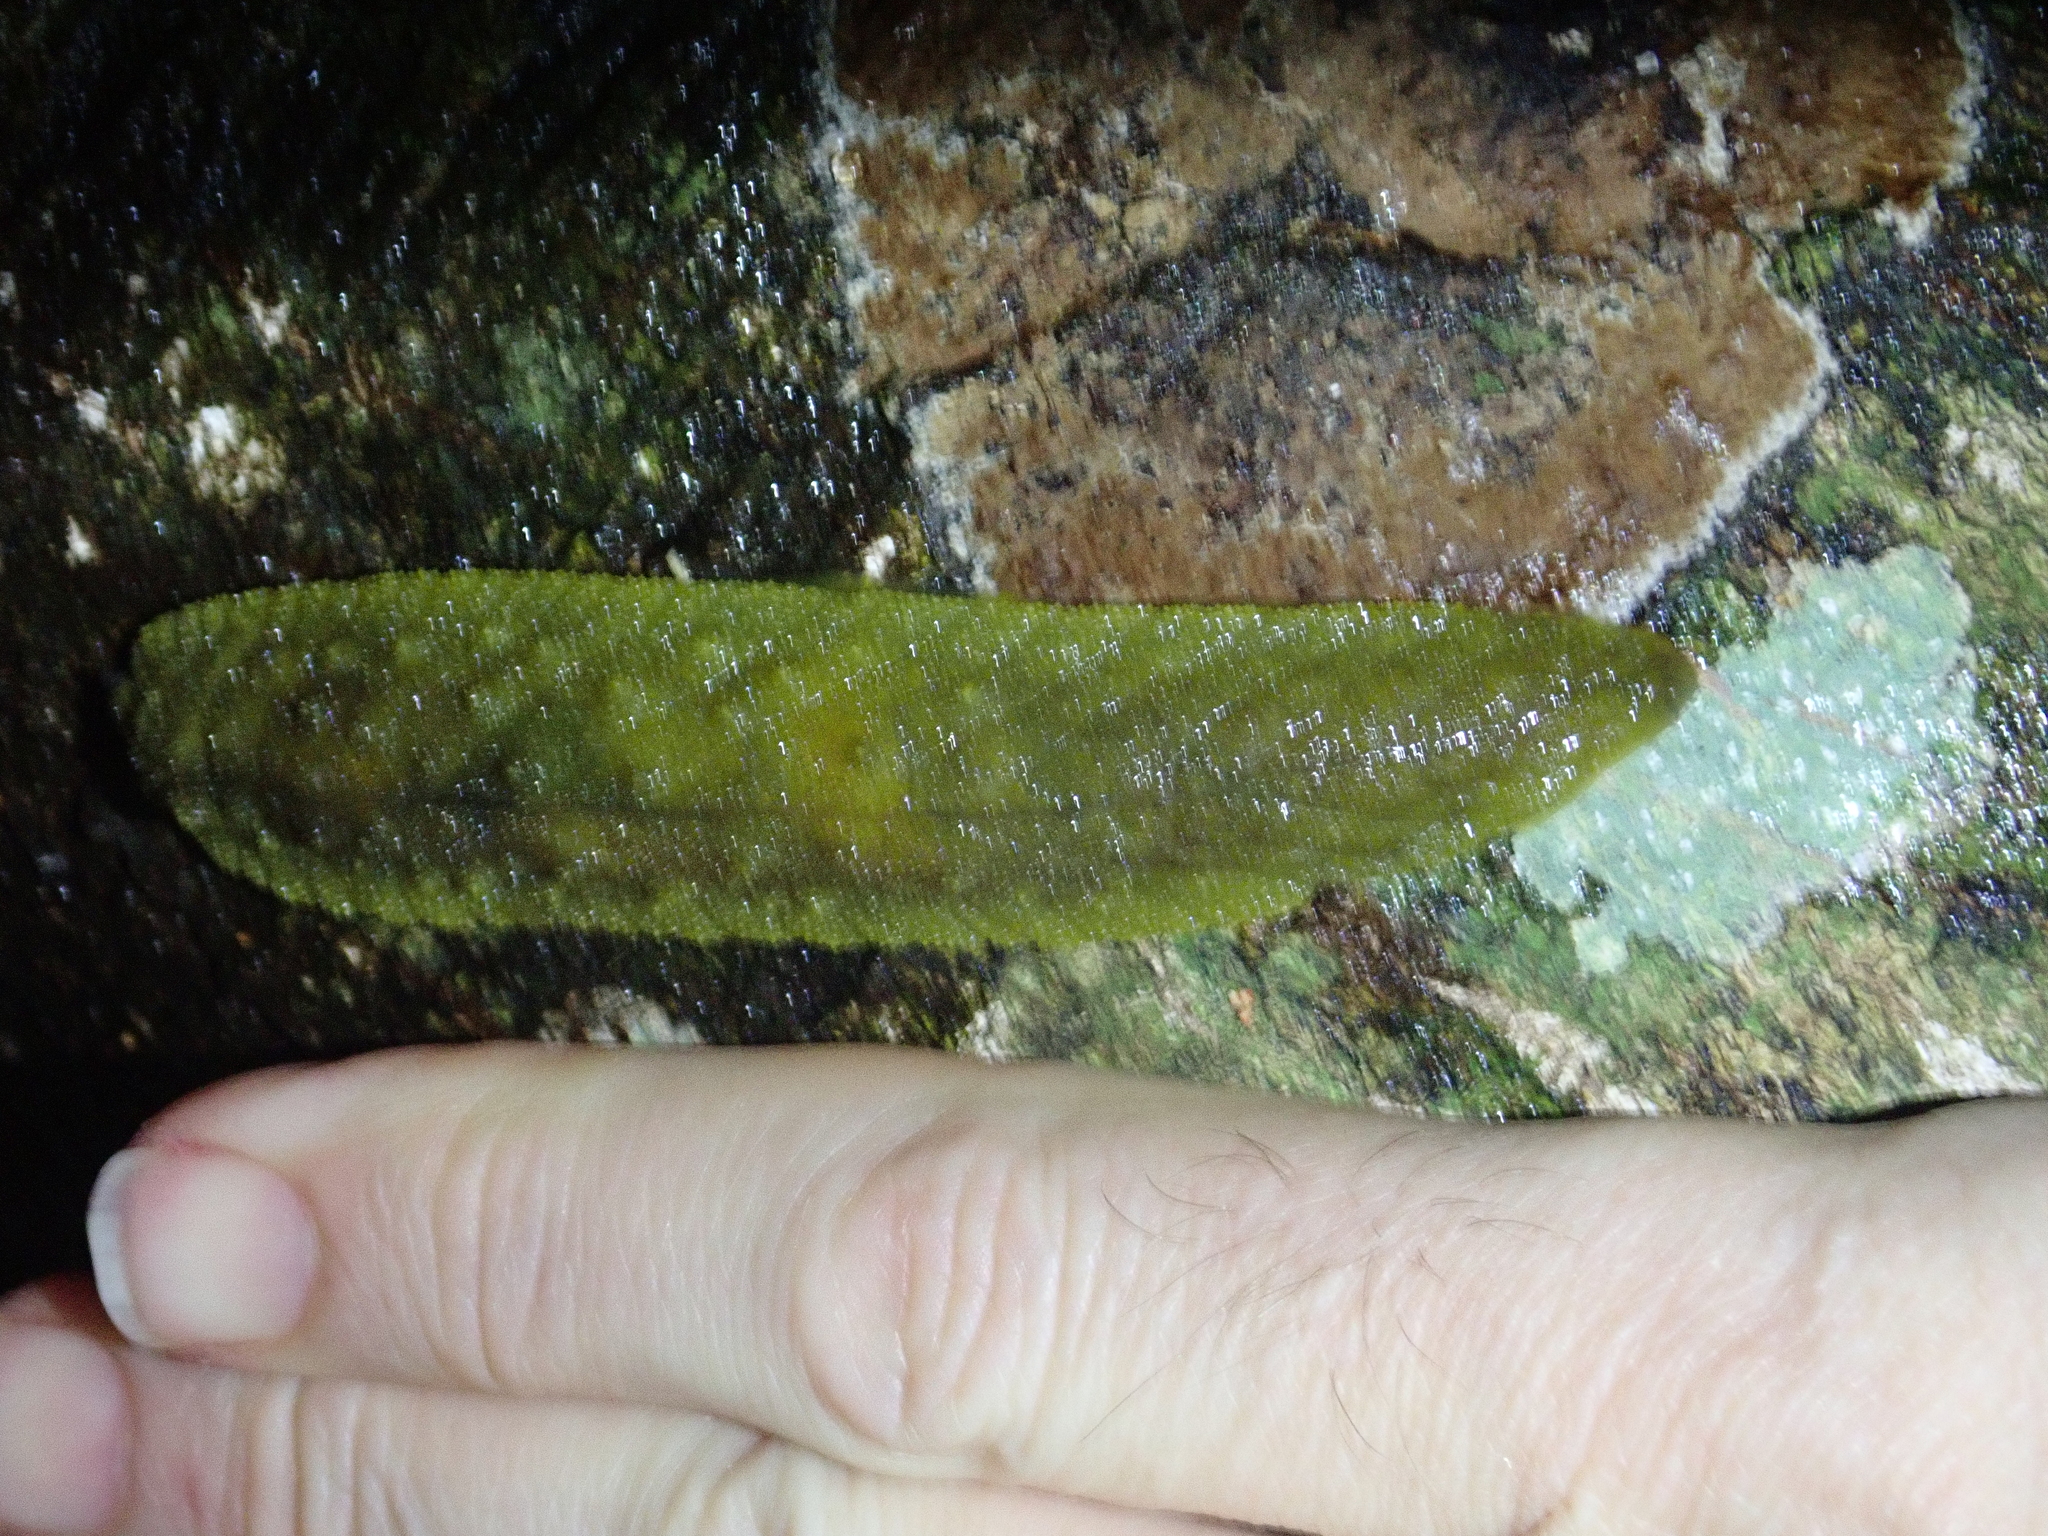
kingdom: Animalia
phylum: Mollusca
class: Gastropoda
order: Stylommatophora
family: Athoracophoridae
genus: Athoracophorus
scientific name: Athoracophorus papillatus
